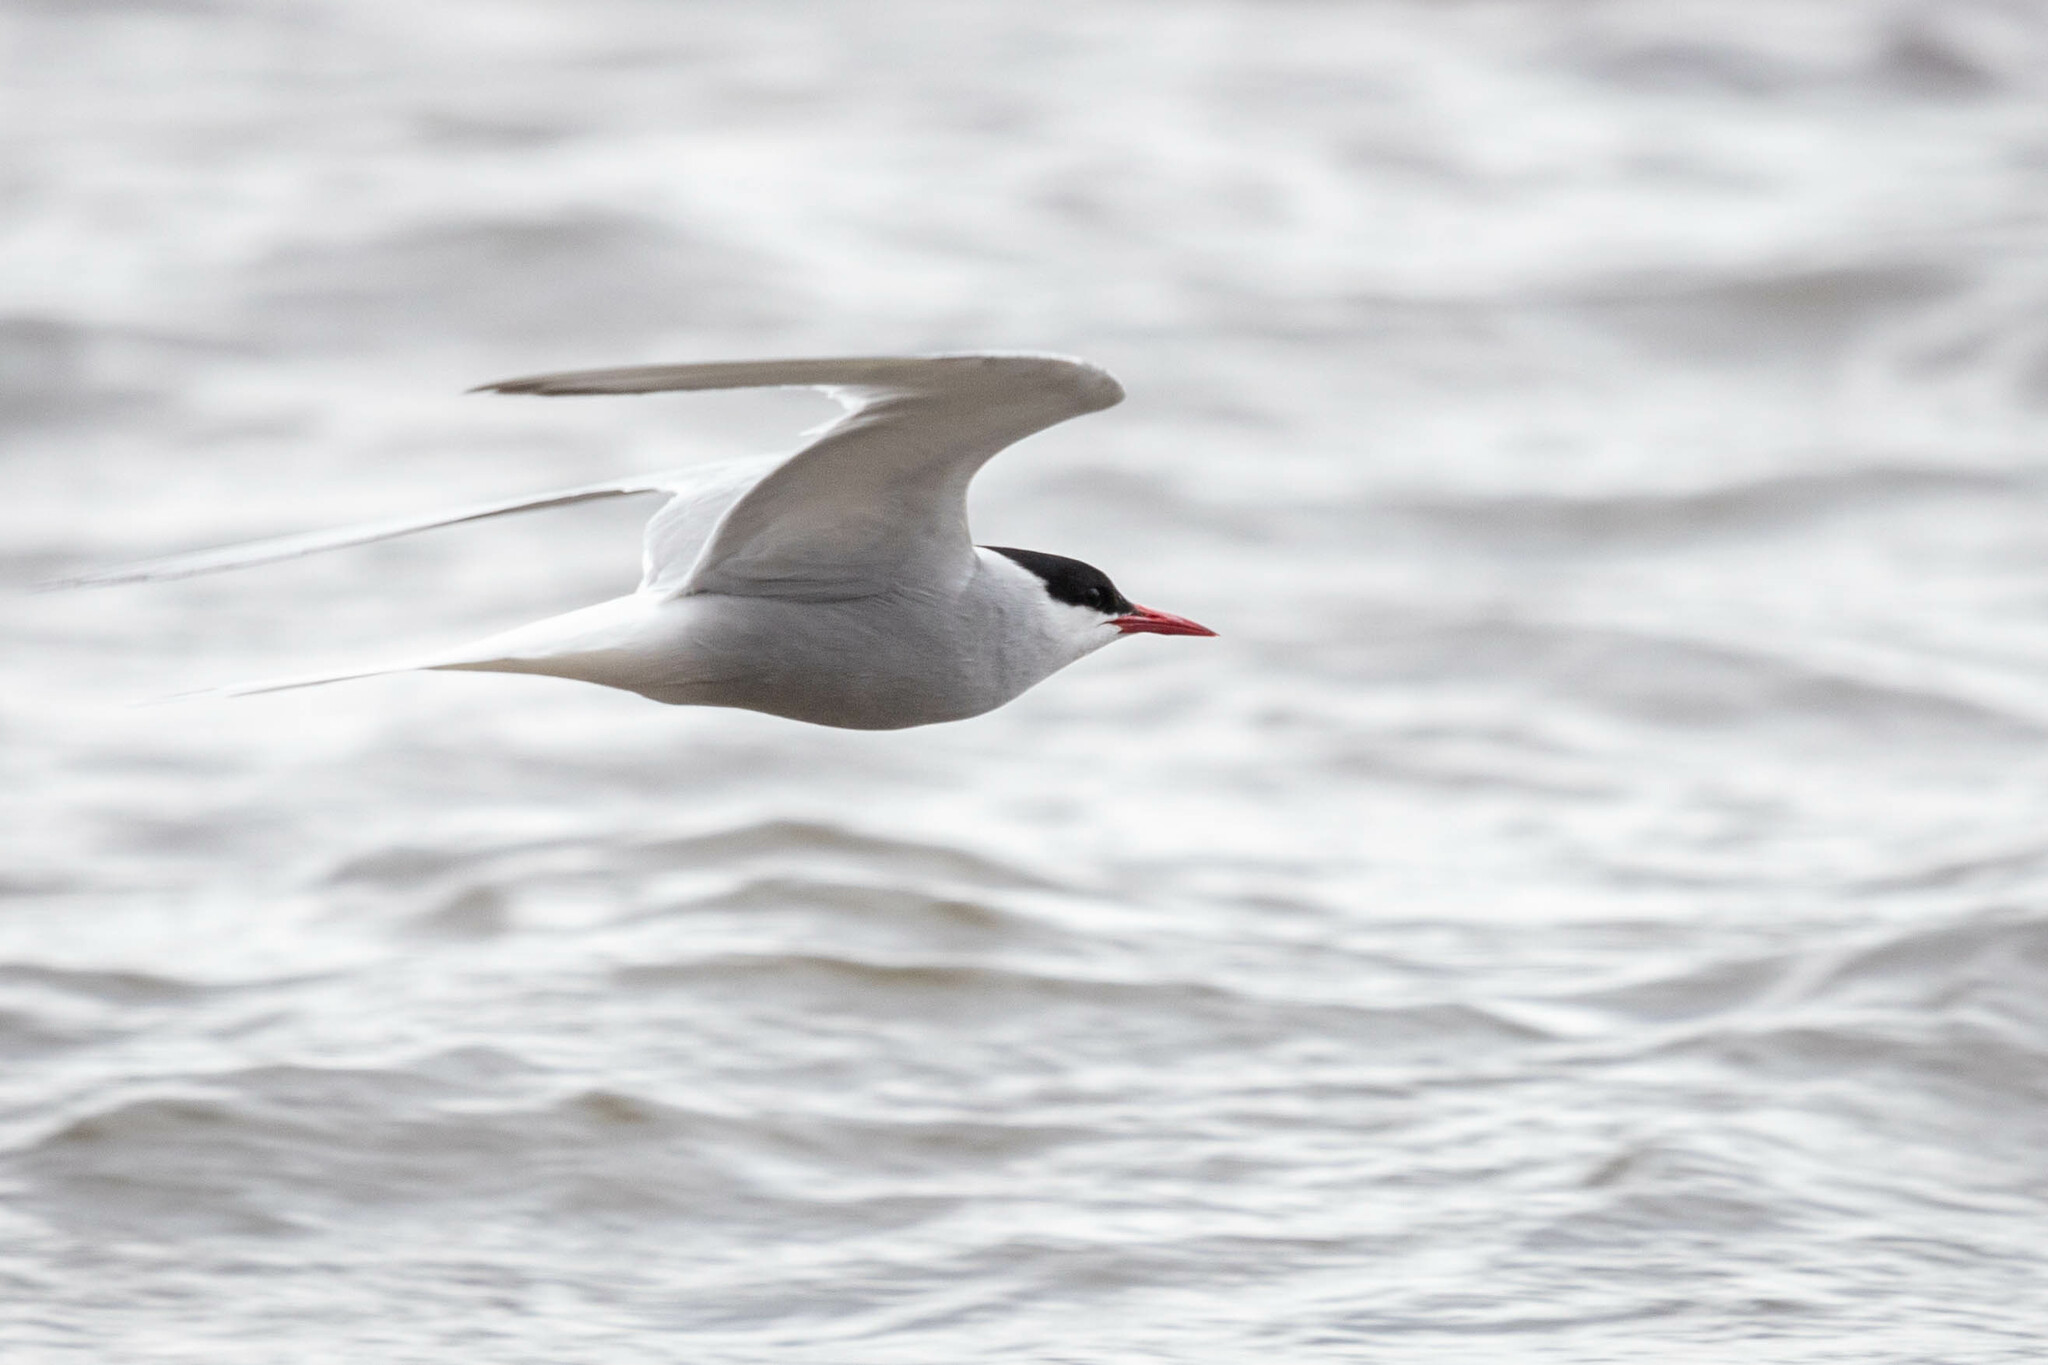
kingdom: Animalia
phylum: Chordata
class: Aves
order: Charadriiformes
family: Laridae
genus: Sterna
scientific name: Sterna paradisaea
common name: Arctic tern
